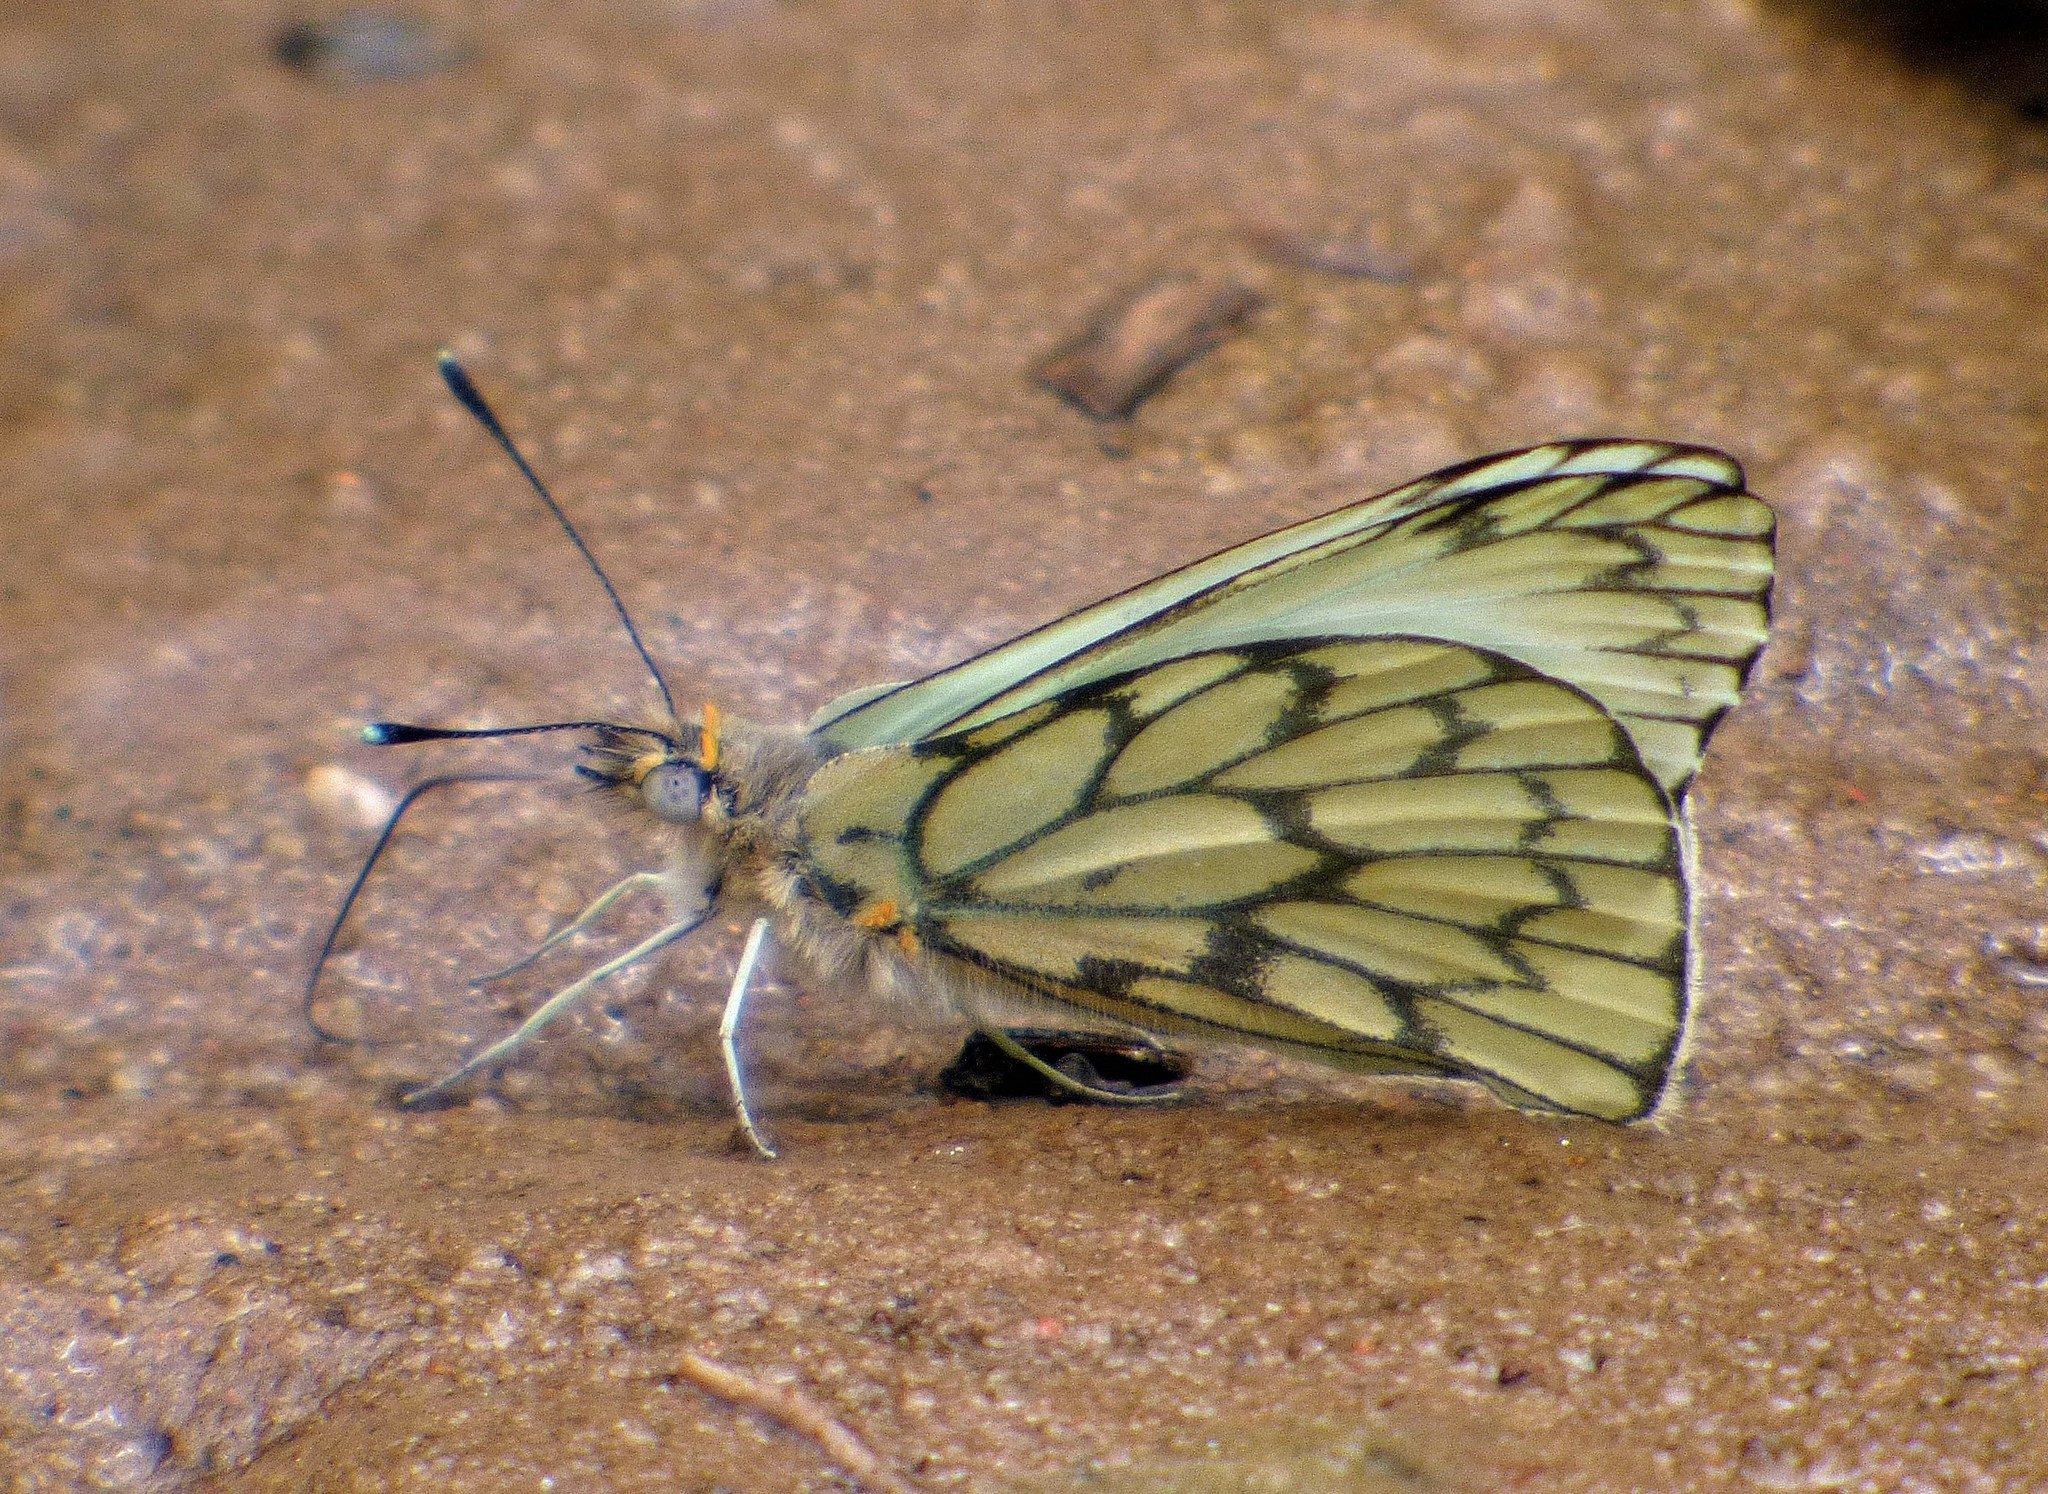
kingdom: Animalia
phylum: Arthropoda
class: Insecta
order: Lepidoptera
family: Pieridae
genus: Hesperocharis
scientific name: Hesperocharis anguitia
